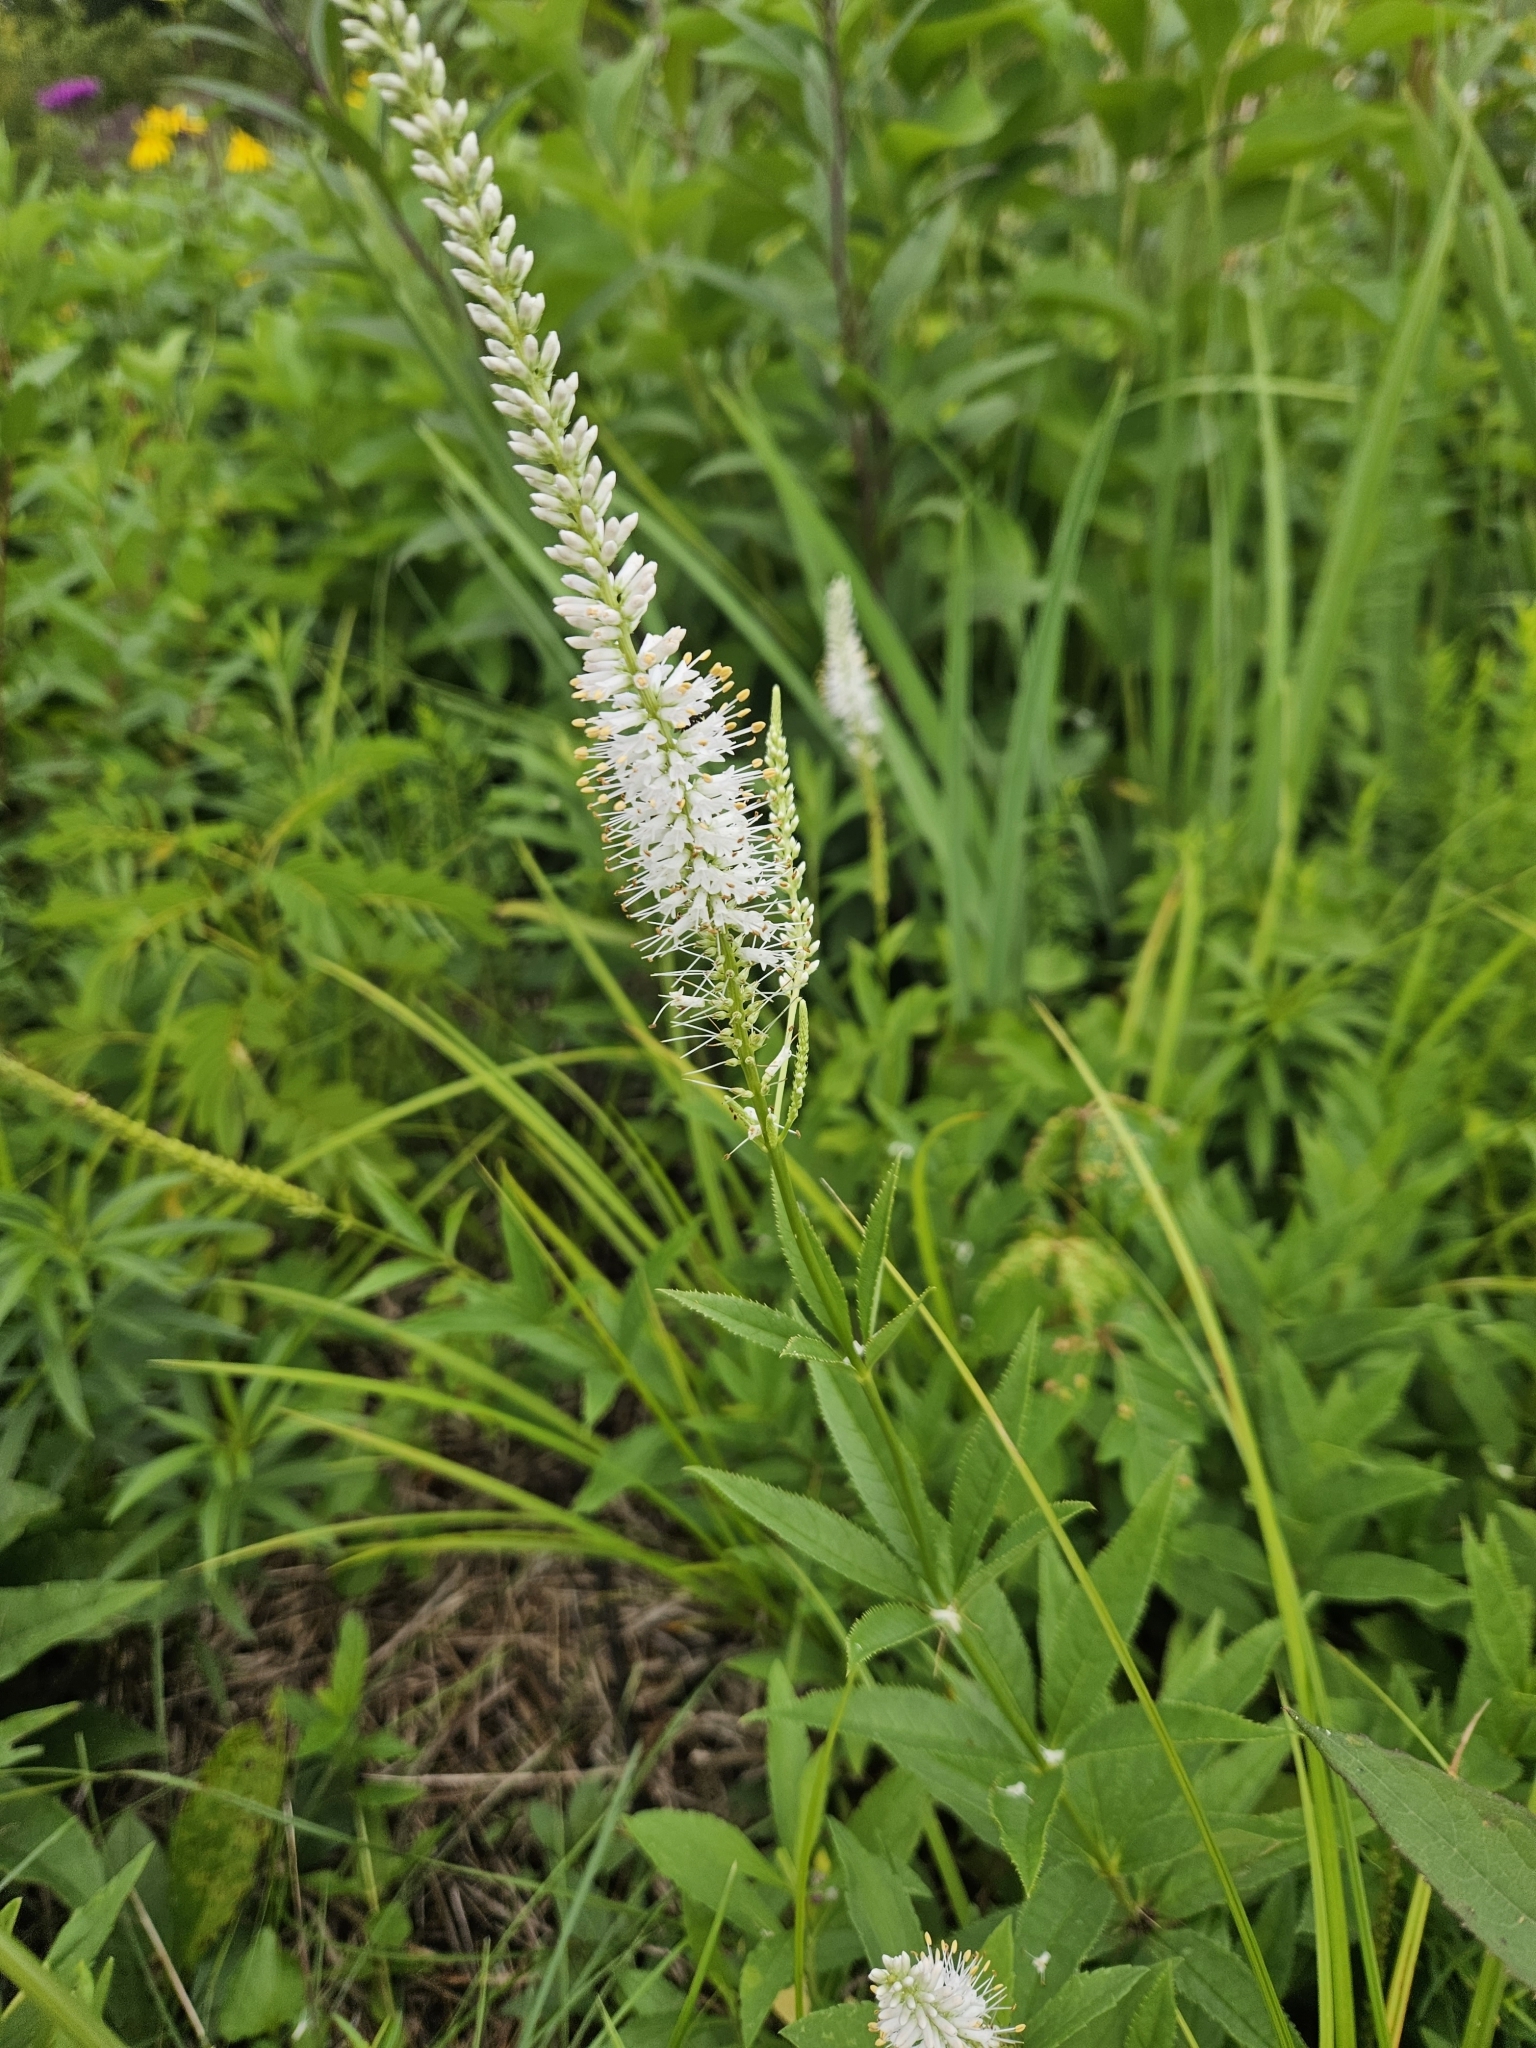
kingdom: Plantae
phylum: Tracheophyta
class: Magnoliopsida
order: Lamiales
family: Plantaginaceae
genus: Veronicastrum
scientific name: Veronicastrum virginicum
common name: Blackroot
